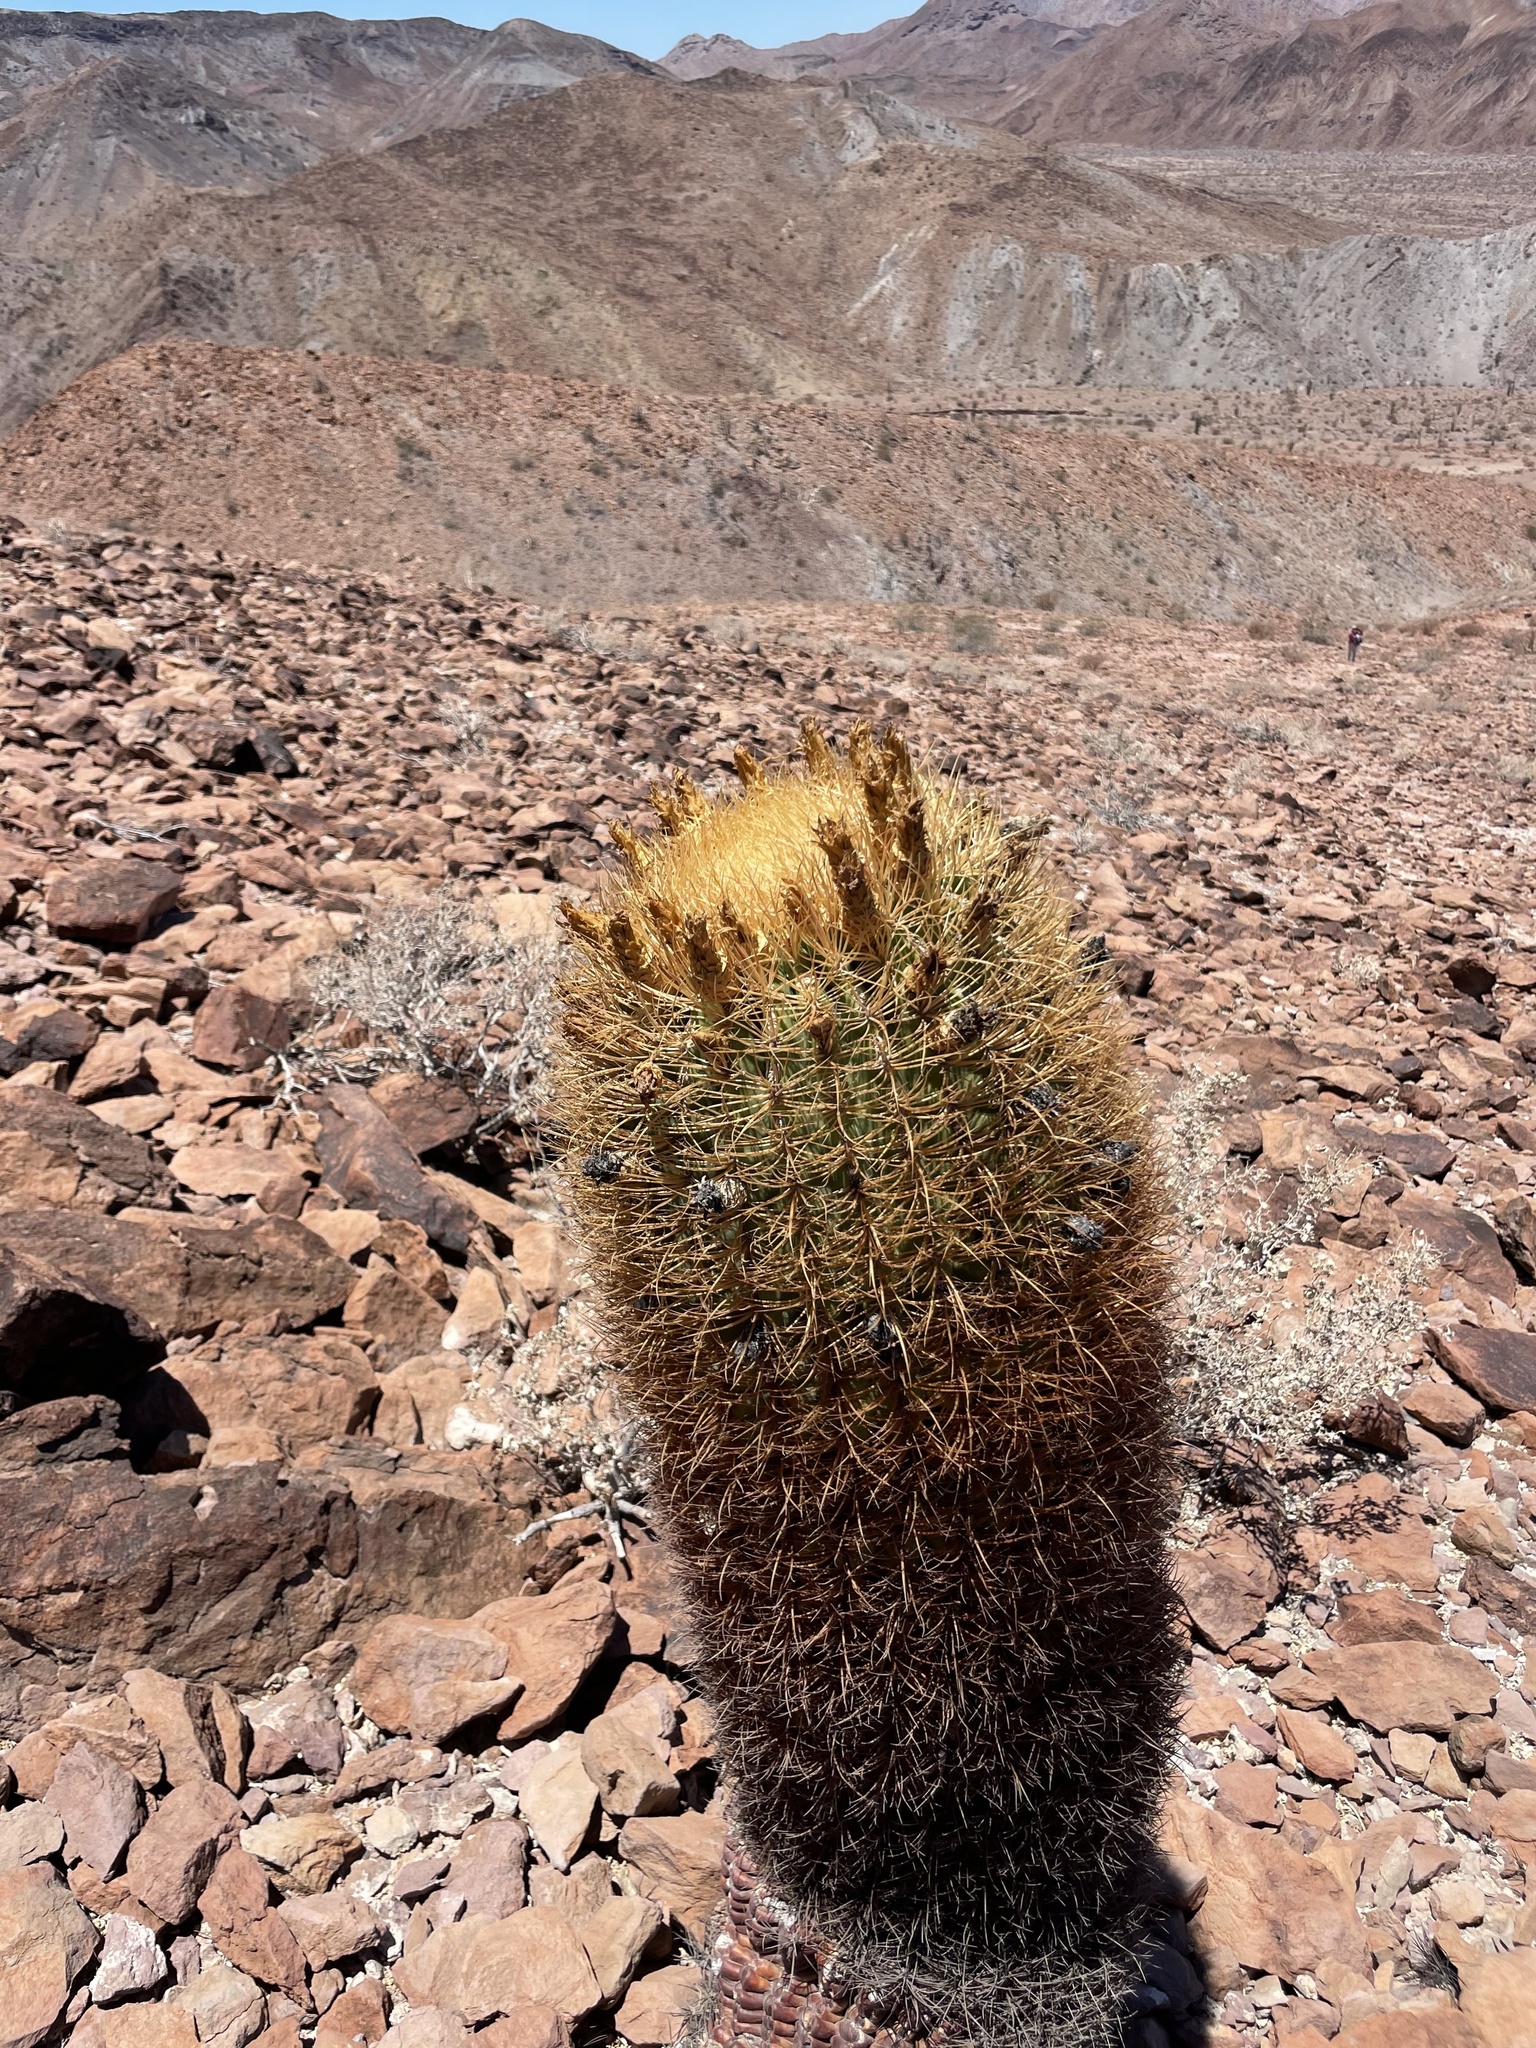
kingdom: Plantae
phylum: Tracheophyta
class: Magnoliopsida
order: Caryophyllales
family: Cactaceae
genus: Ferocactus
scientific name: Ferocactus johnstonianus
